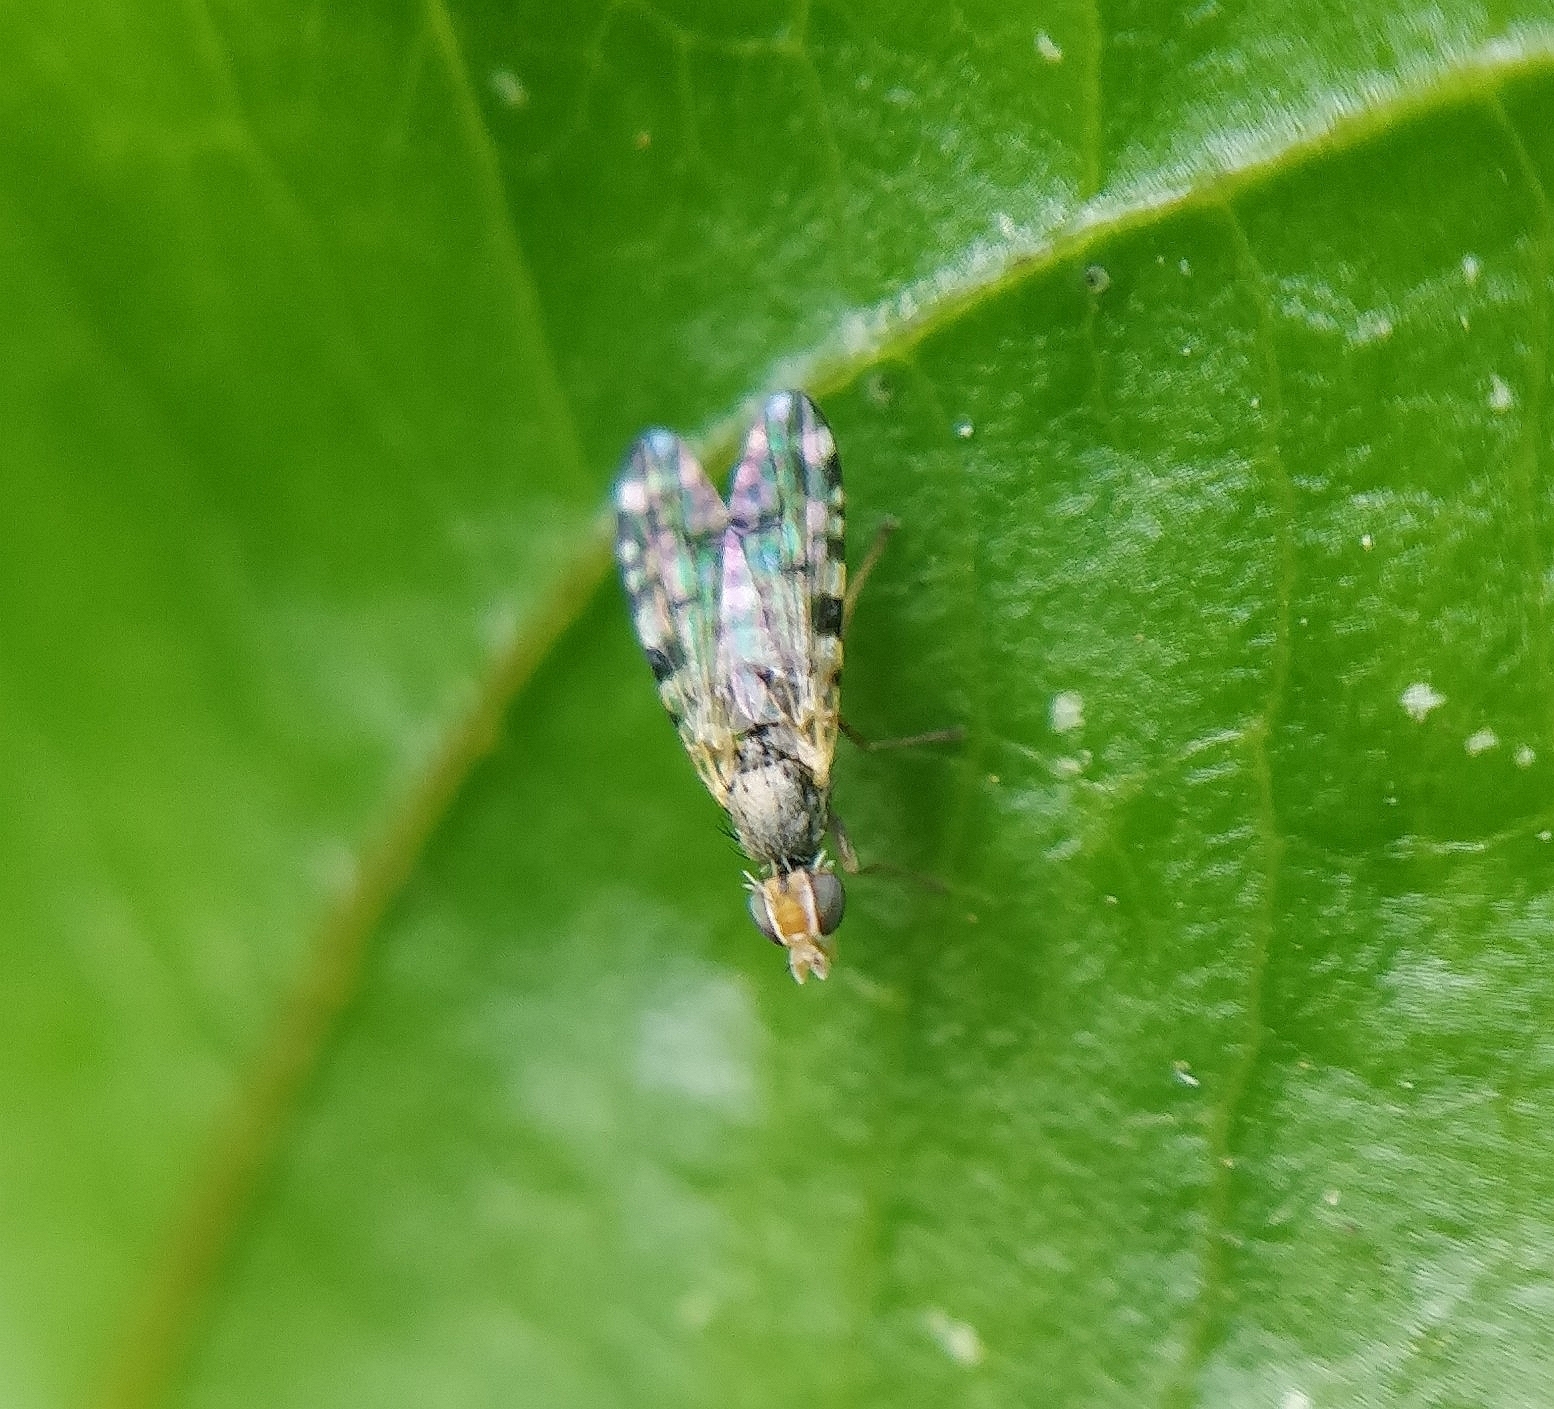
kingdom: Animalia
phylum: Arthropoda
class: Insecta
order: Diptera
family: Tephritidae
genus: Dioxyna
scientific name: Dioxyna sororcula
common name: Fruit fly
